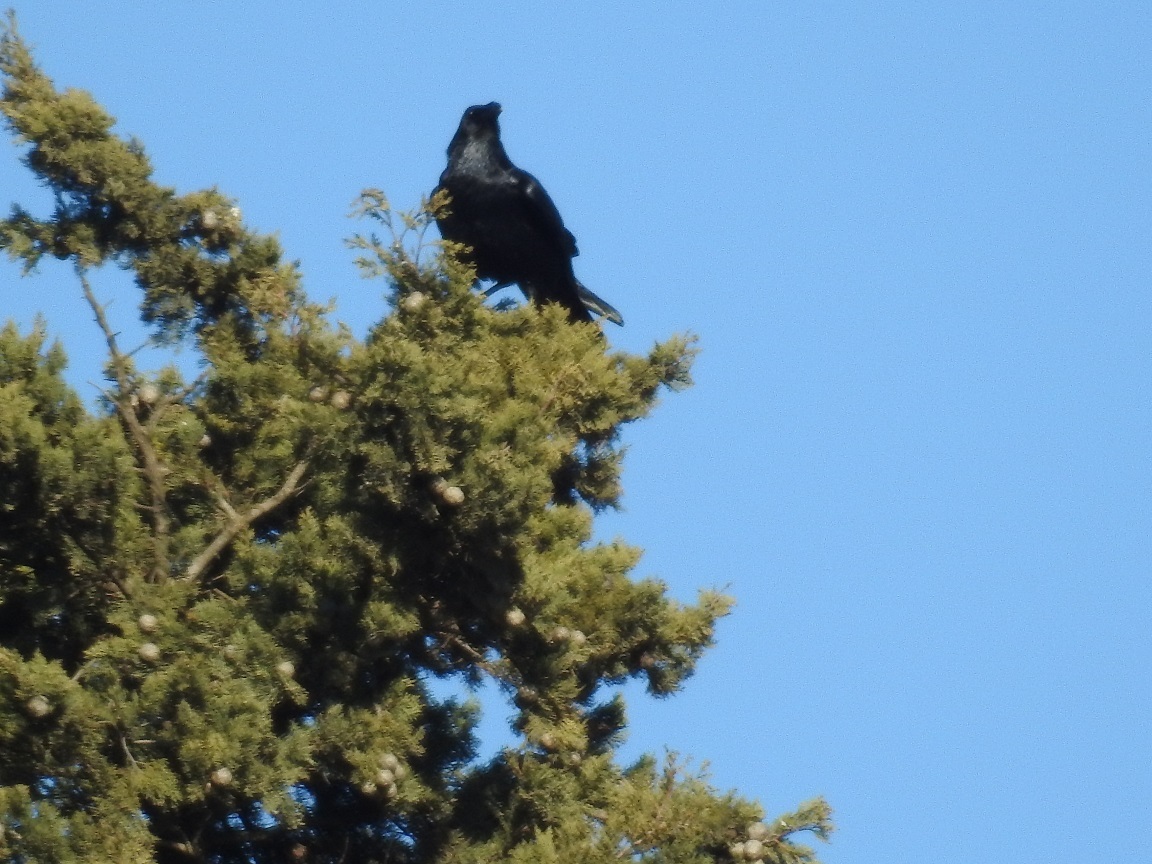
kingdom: Animalia
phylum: Chordata
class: Aves
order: Passeriformes
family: Corvidae
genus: Corvus
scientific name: Corvus corax
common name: Common raven
